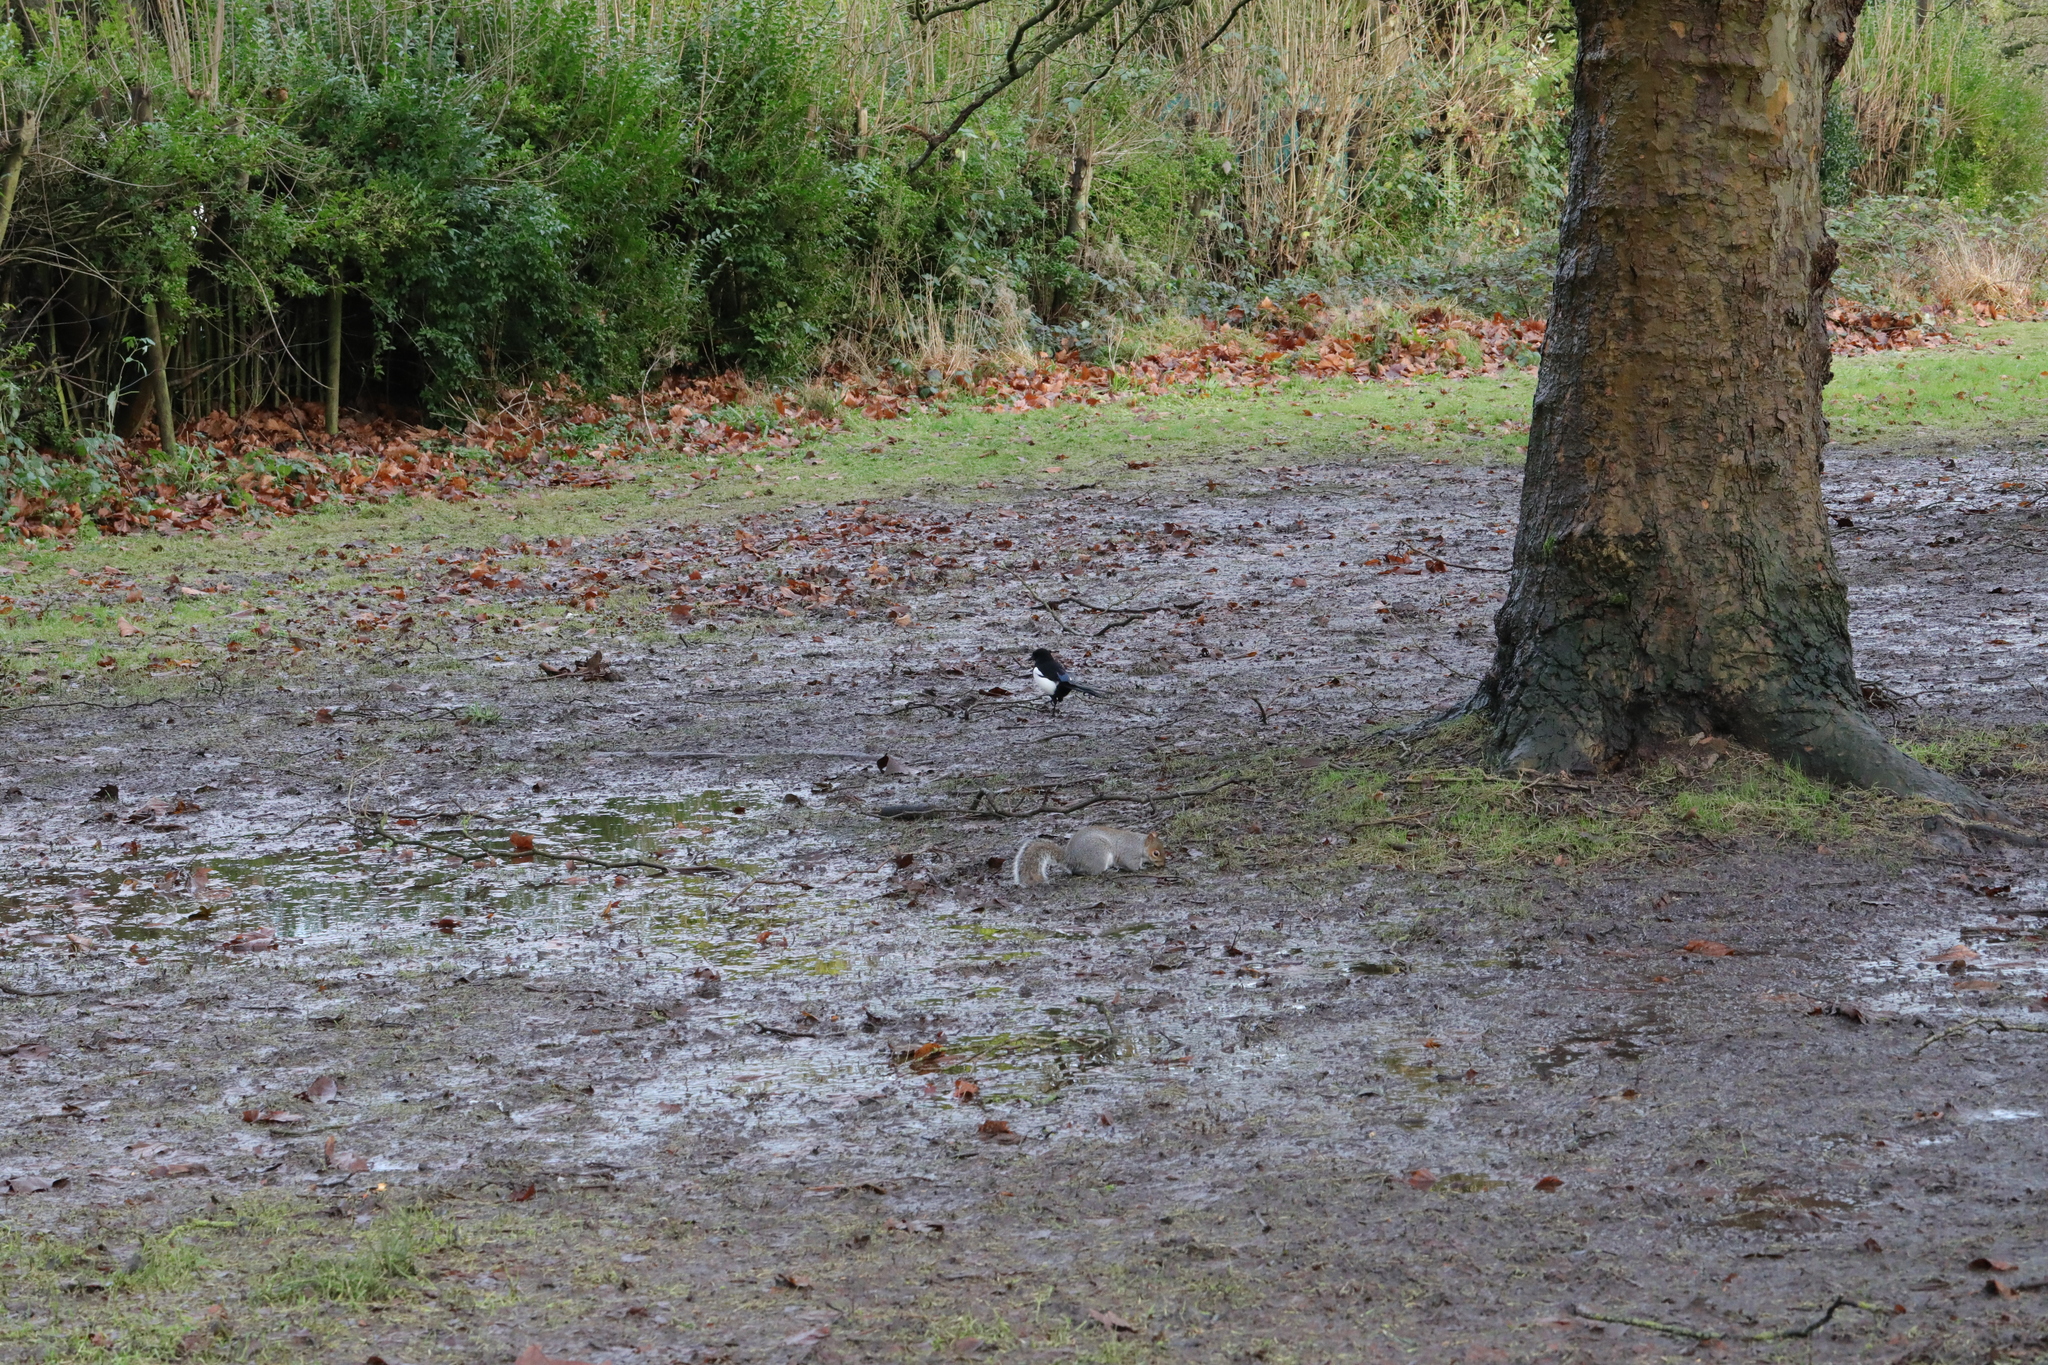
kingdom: Animalia
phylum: Chordata
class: Aves
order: Passeriformes
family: Corvidae
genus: Pica
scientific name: Pica pica
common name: Eurasian magpie
